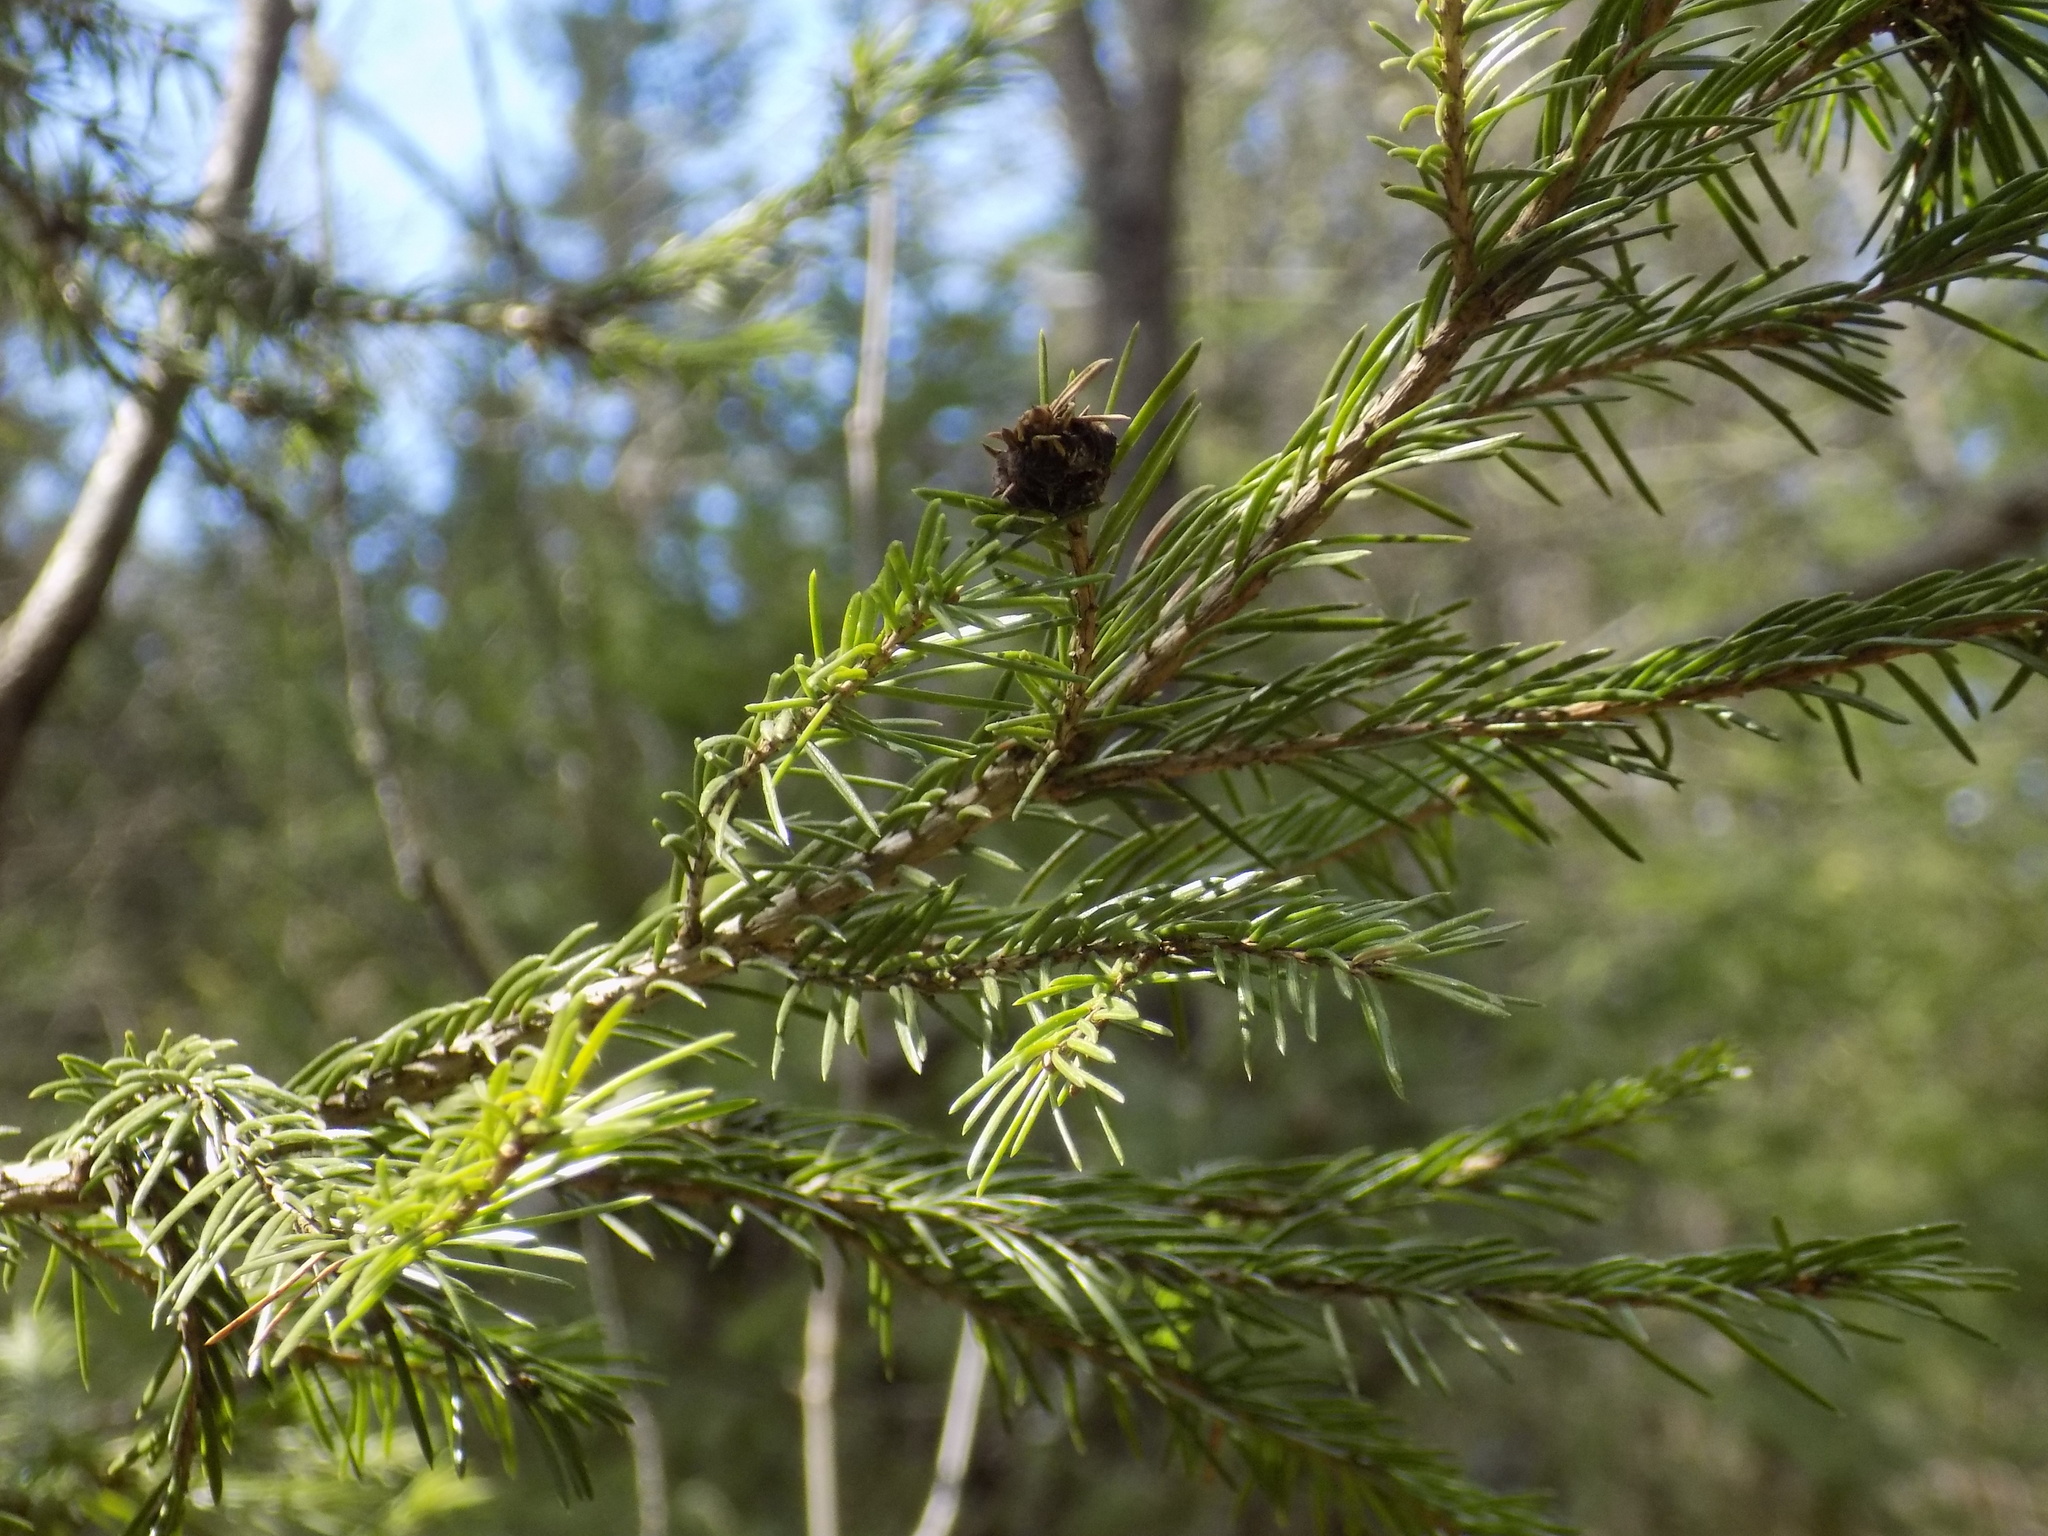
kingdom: Plantae
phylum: Tracheophyta
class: Pinopsida
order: Pinales
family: Pinaceae
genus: Abies
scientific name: Abies sibirica
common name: Siberian fir
